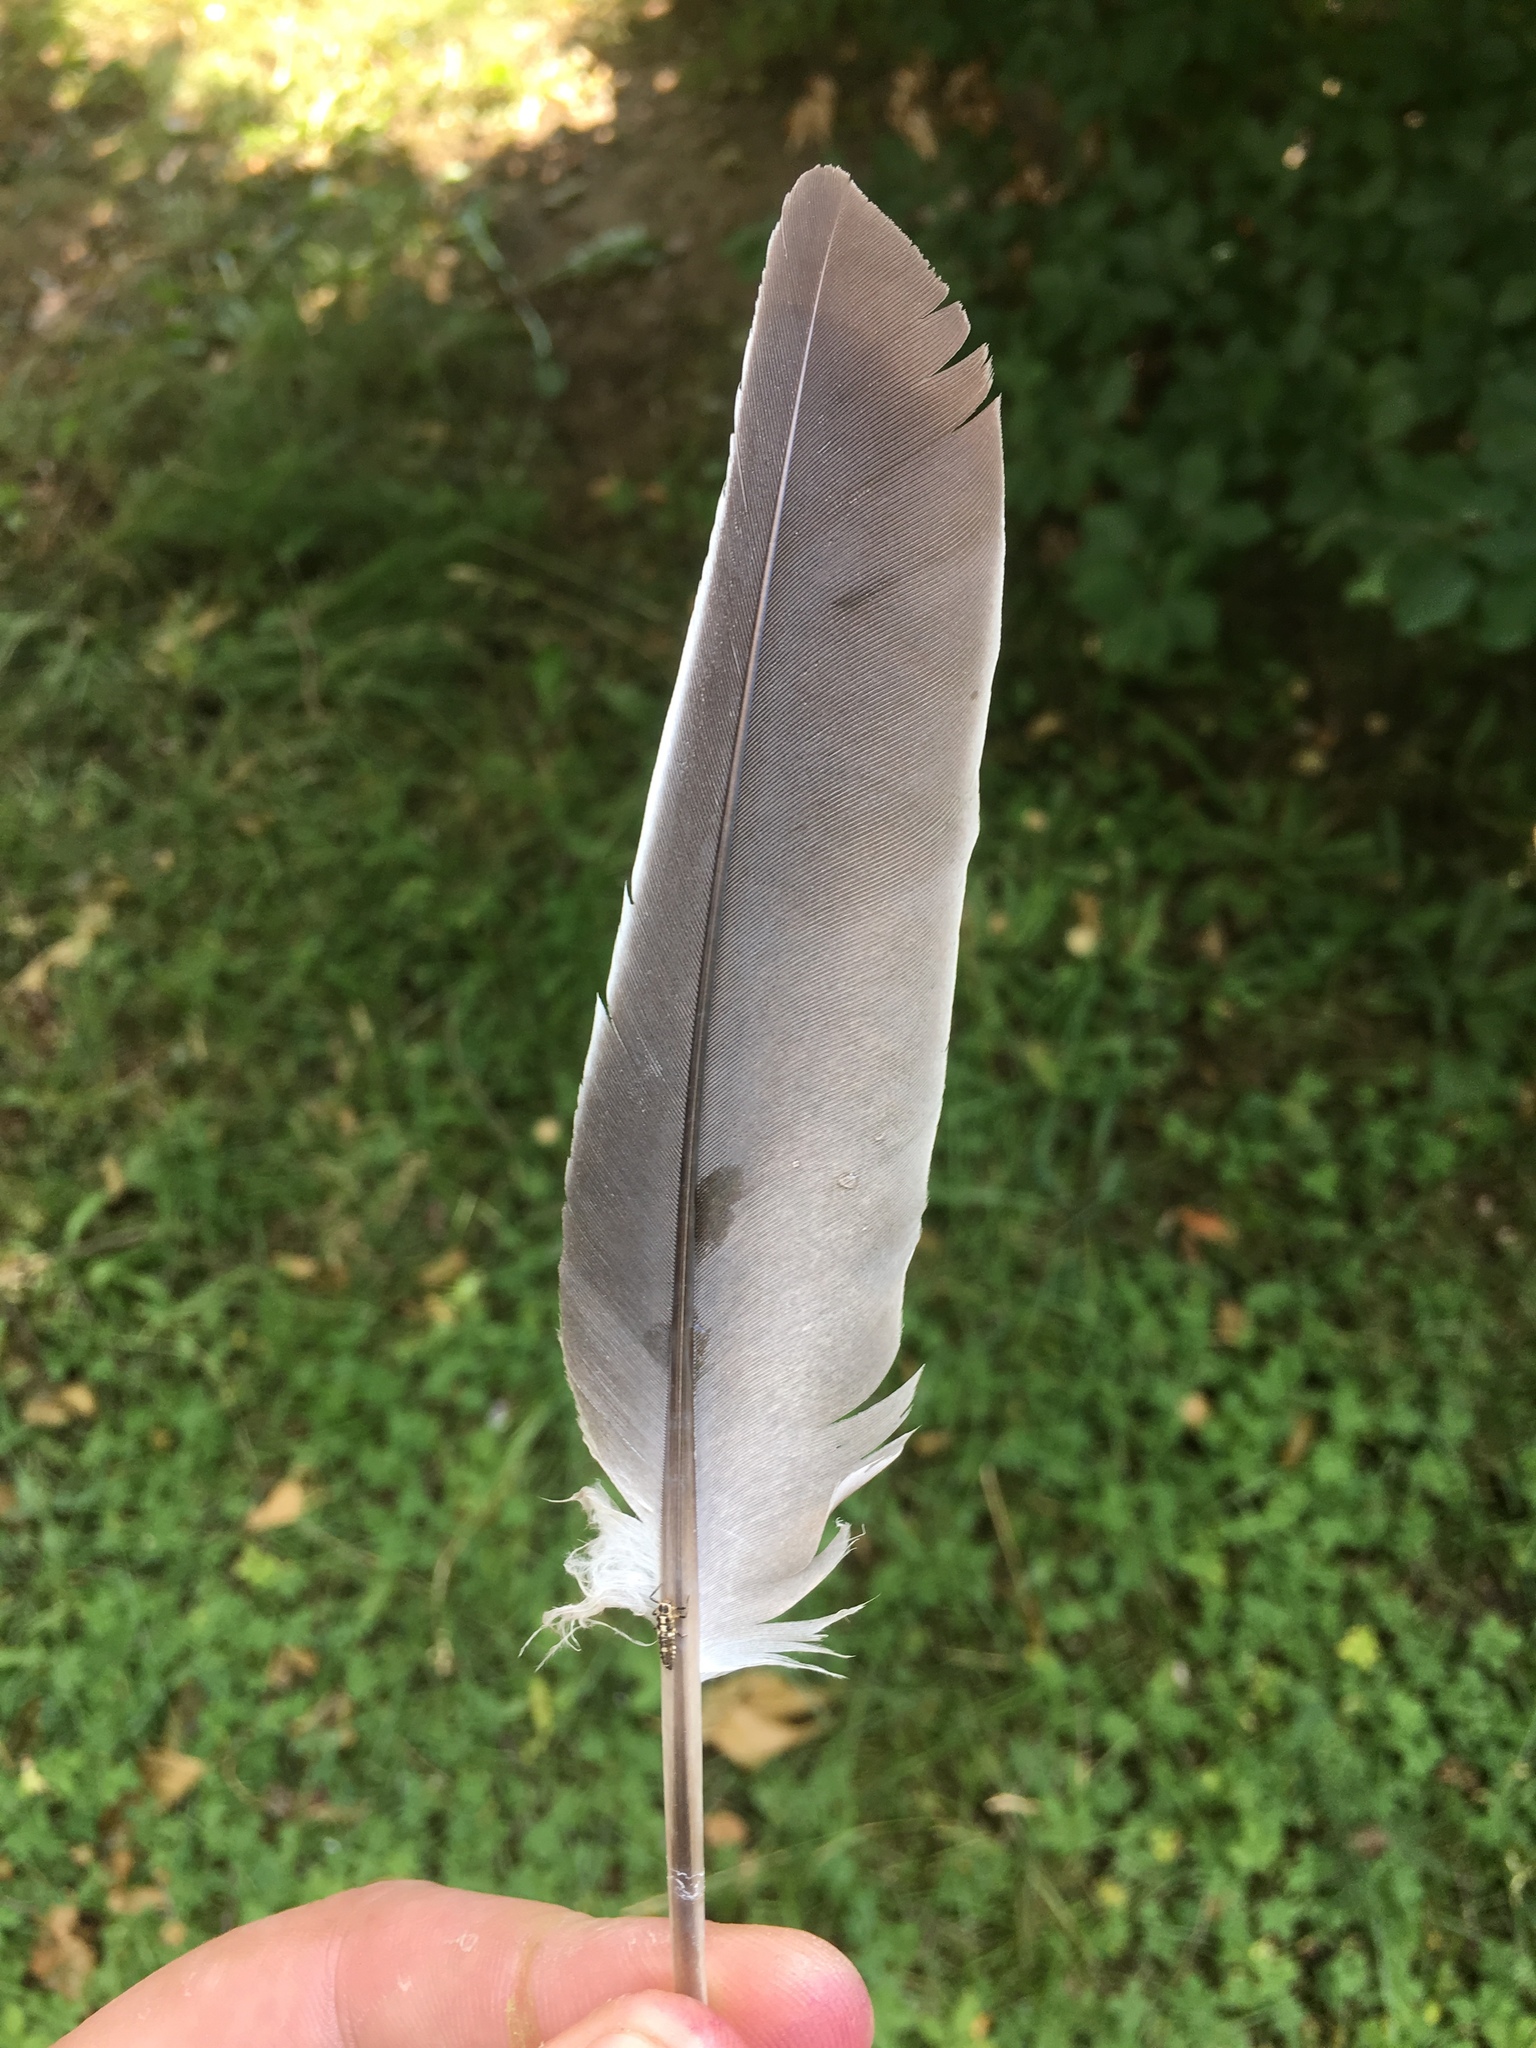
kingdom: Animalia
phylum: Chordata
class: Aves
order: Columbiformes
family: Columbidae
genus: Columba
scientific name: Columba palumbus
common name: Common wood pigeon
